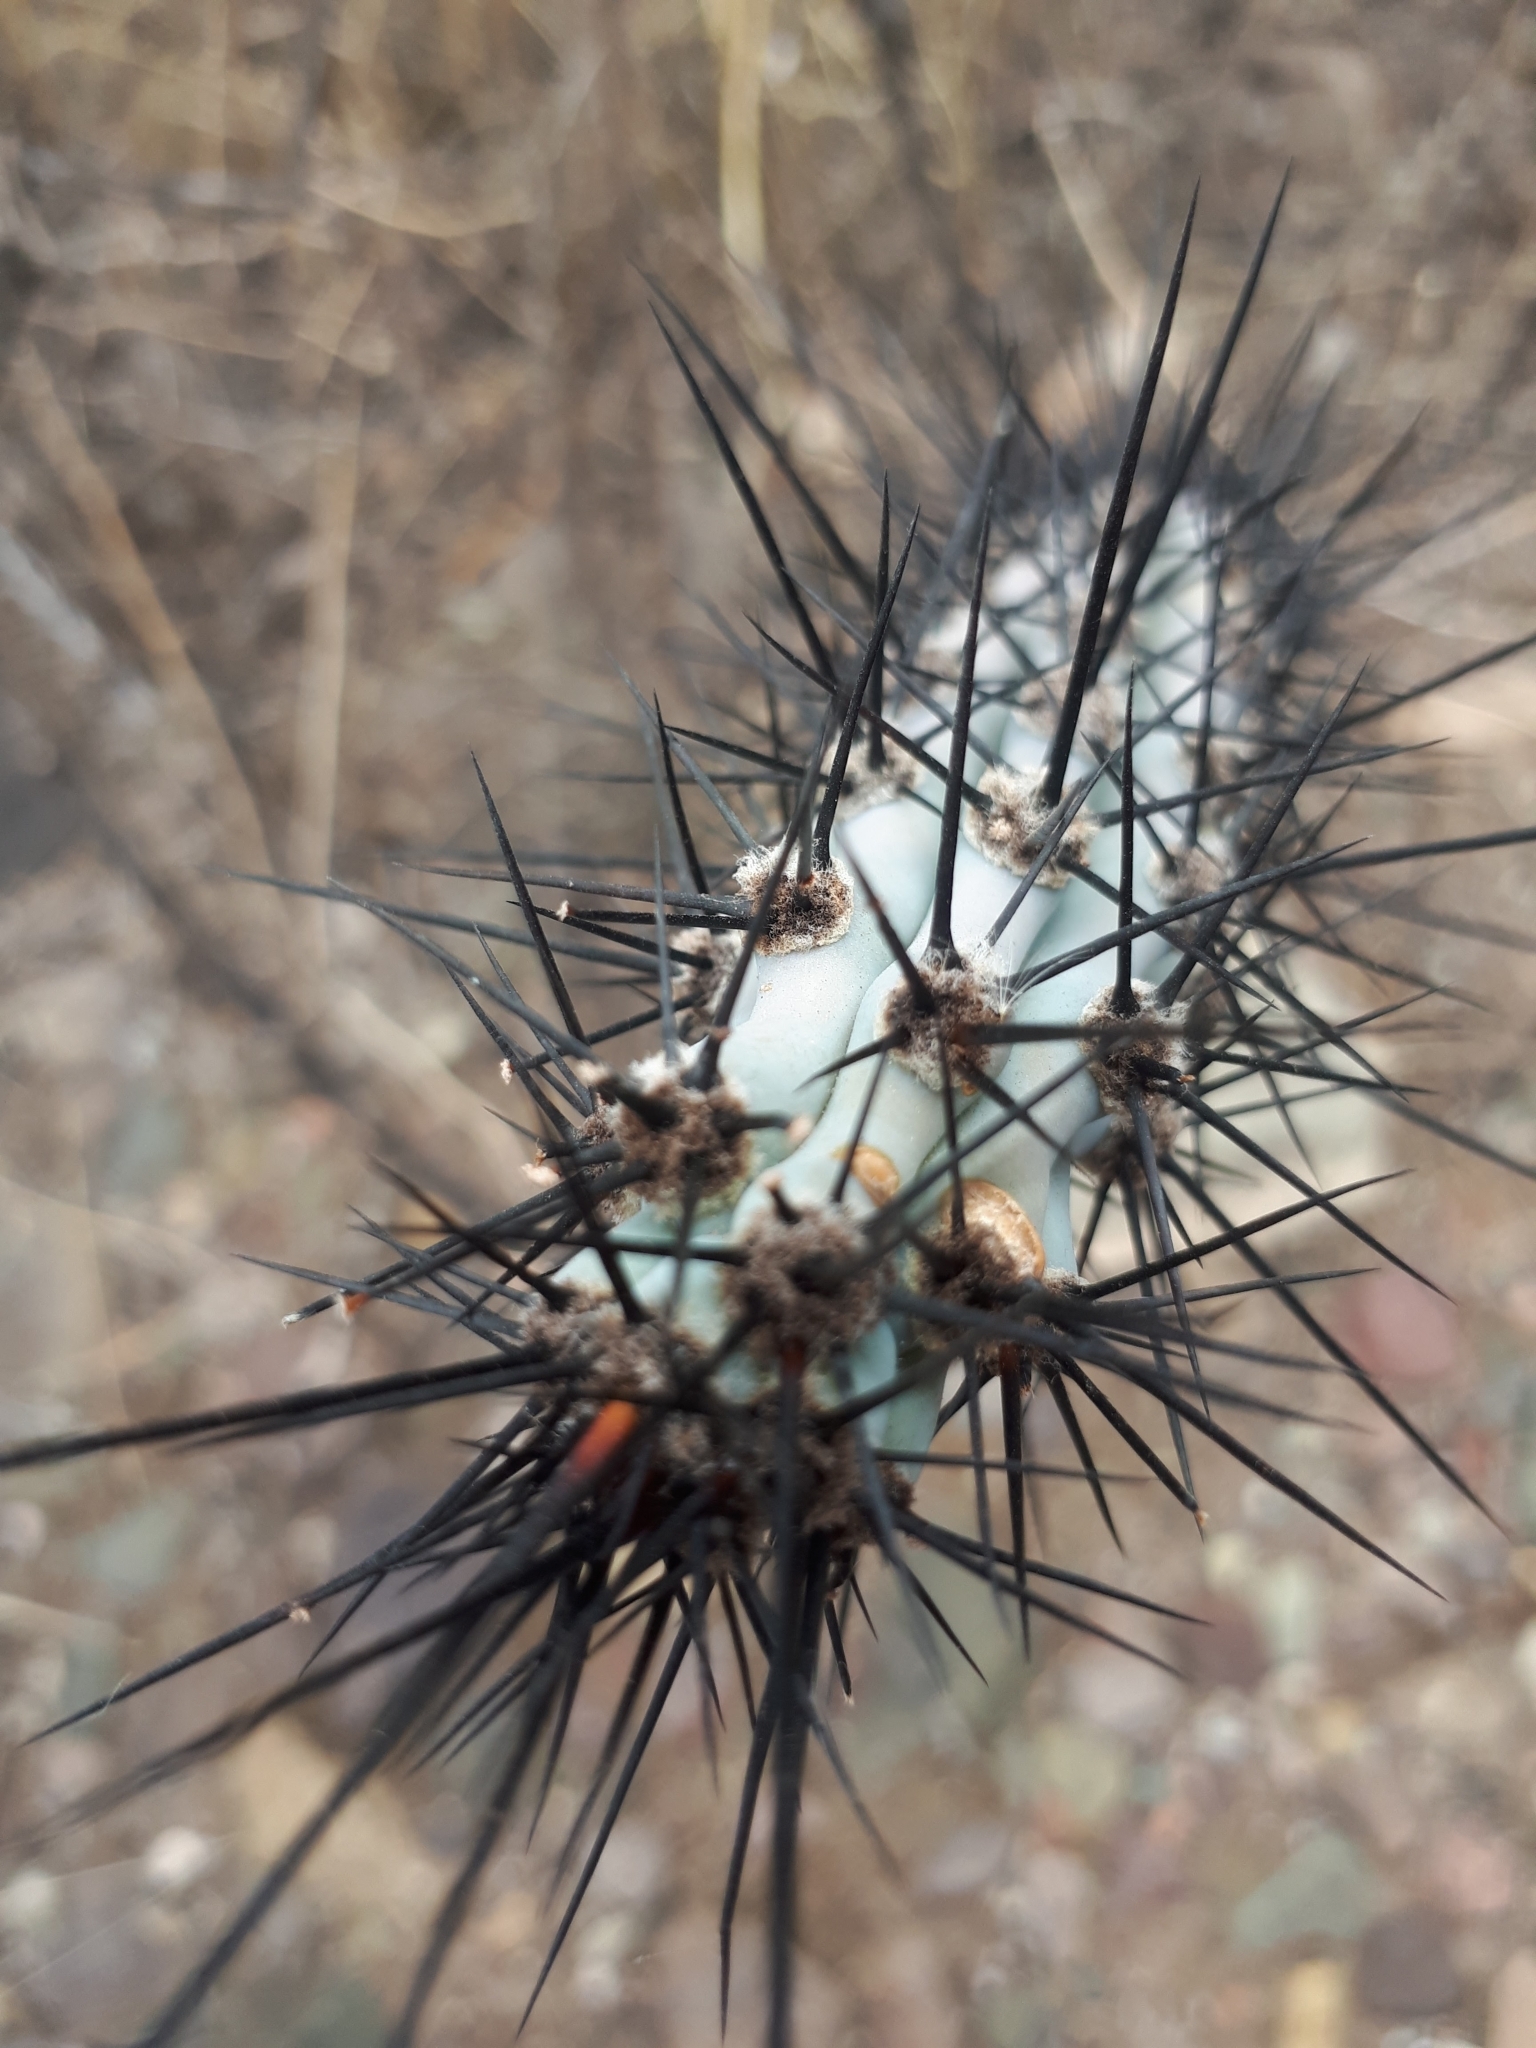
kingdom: Plantae
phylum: Tracheophyta
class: Magnoliopsida
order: Caryophyllales
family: Cactaceae
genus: Cereus
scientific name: Cereus aethiops
